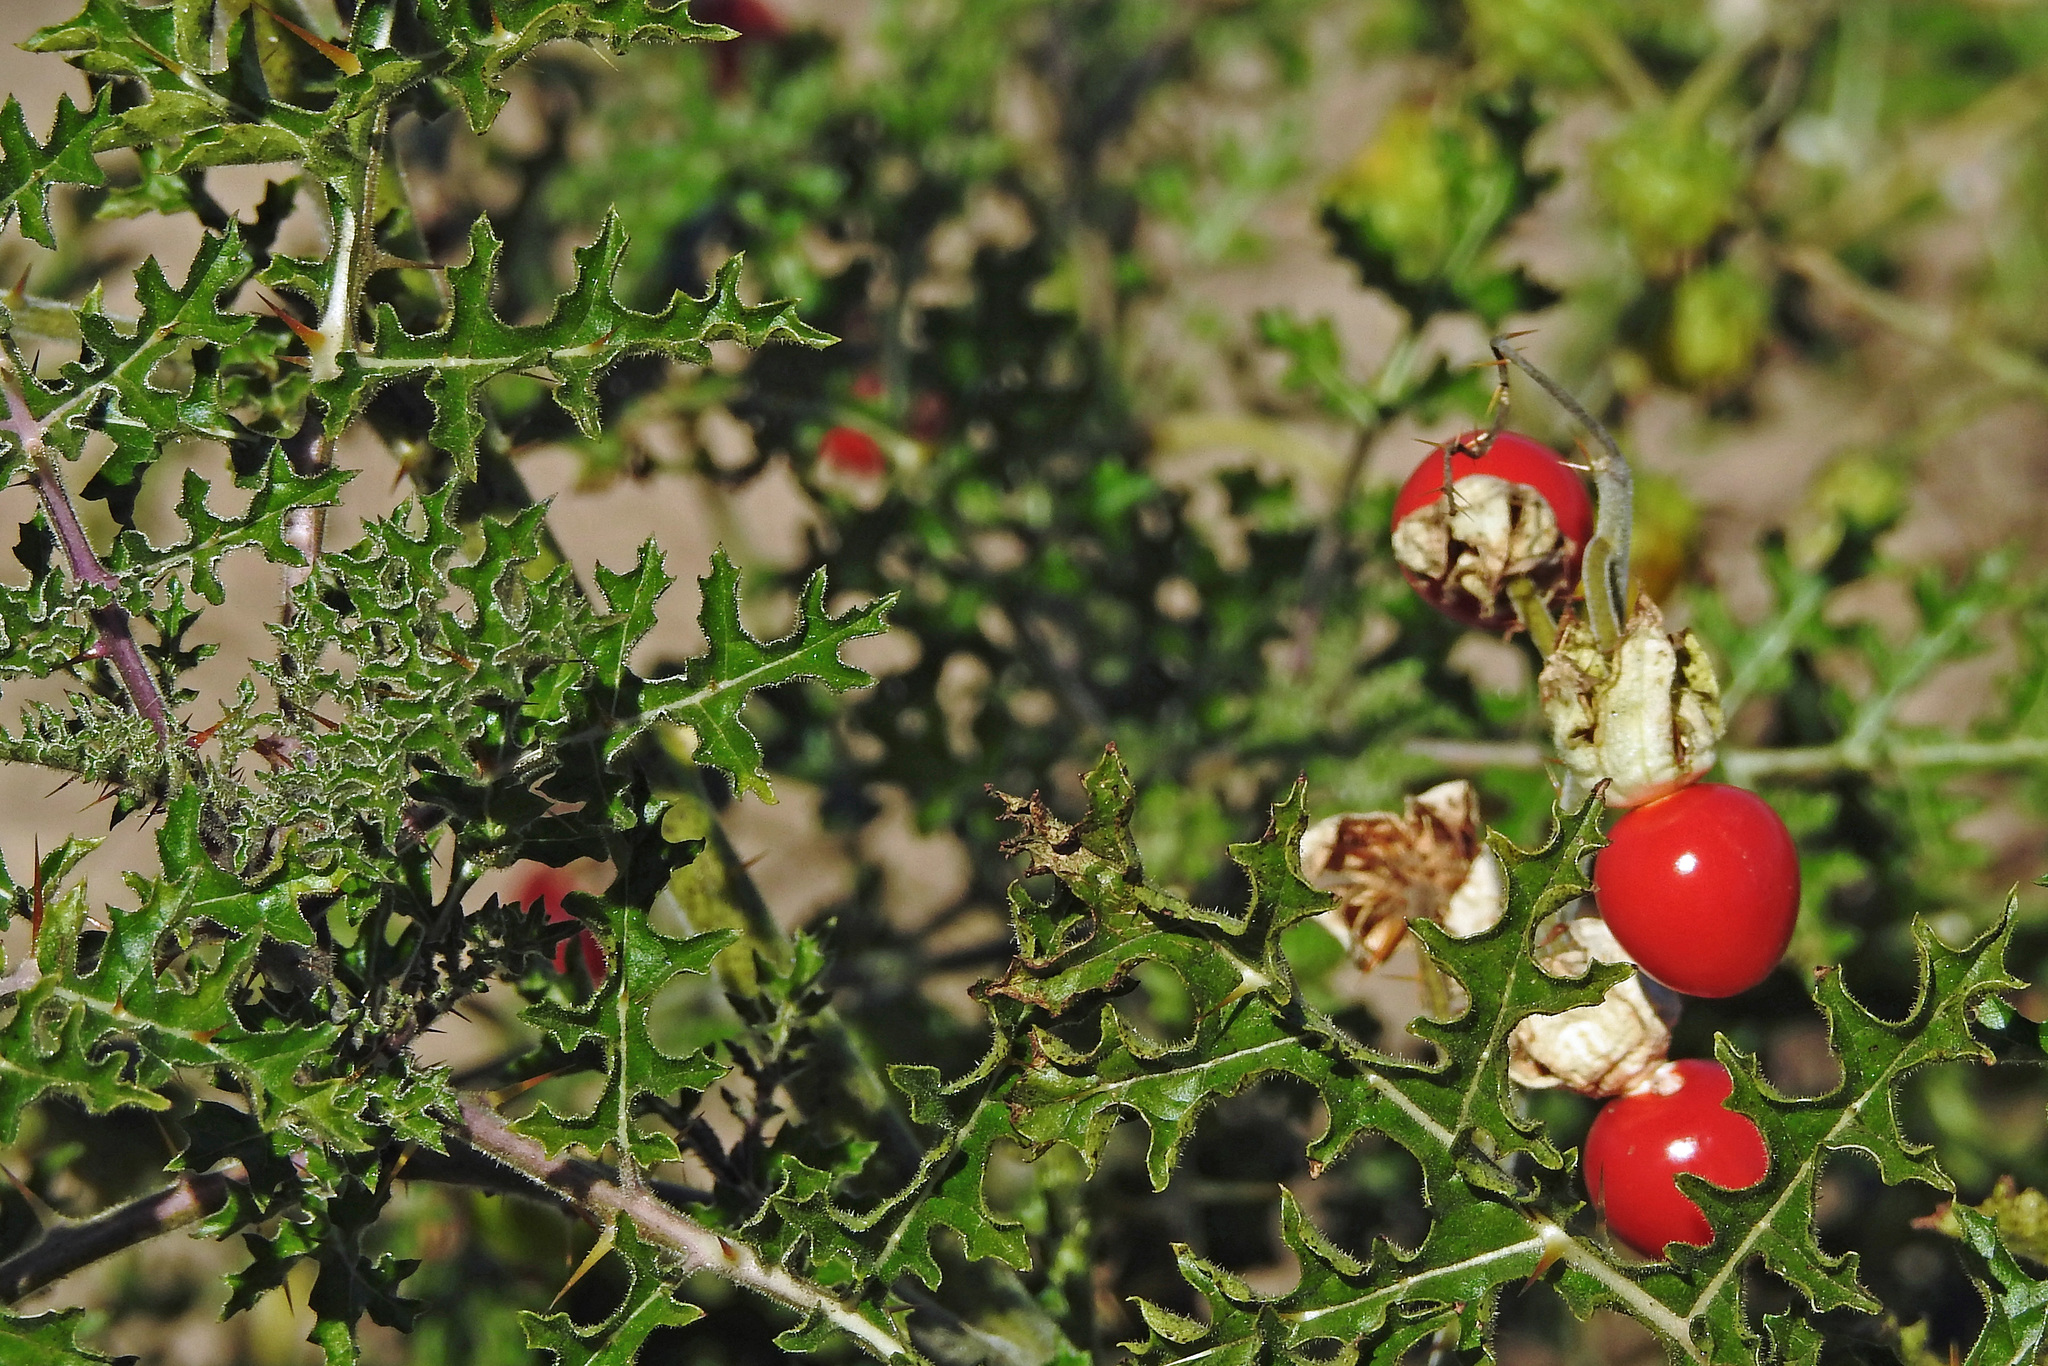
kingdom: Plantae
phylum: Tracheophyta
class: Magnoliopsida
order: Solanales
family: Solanaceae
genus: Solanum
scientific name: Solanum sisymbriifolium
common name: Red buffalo-bur
